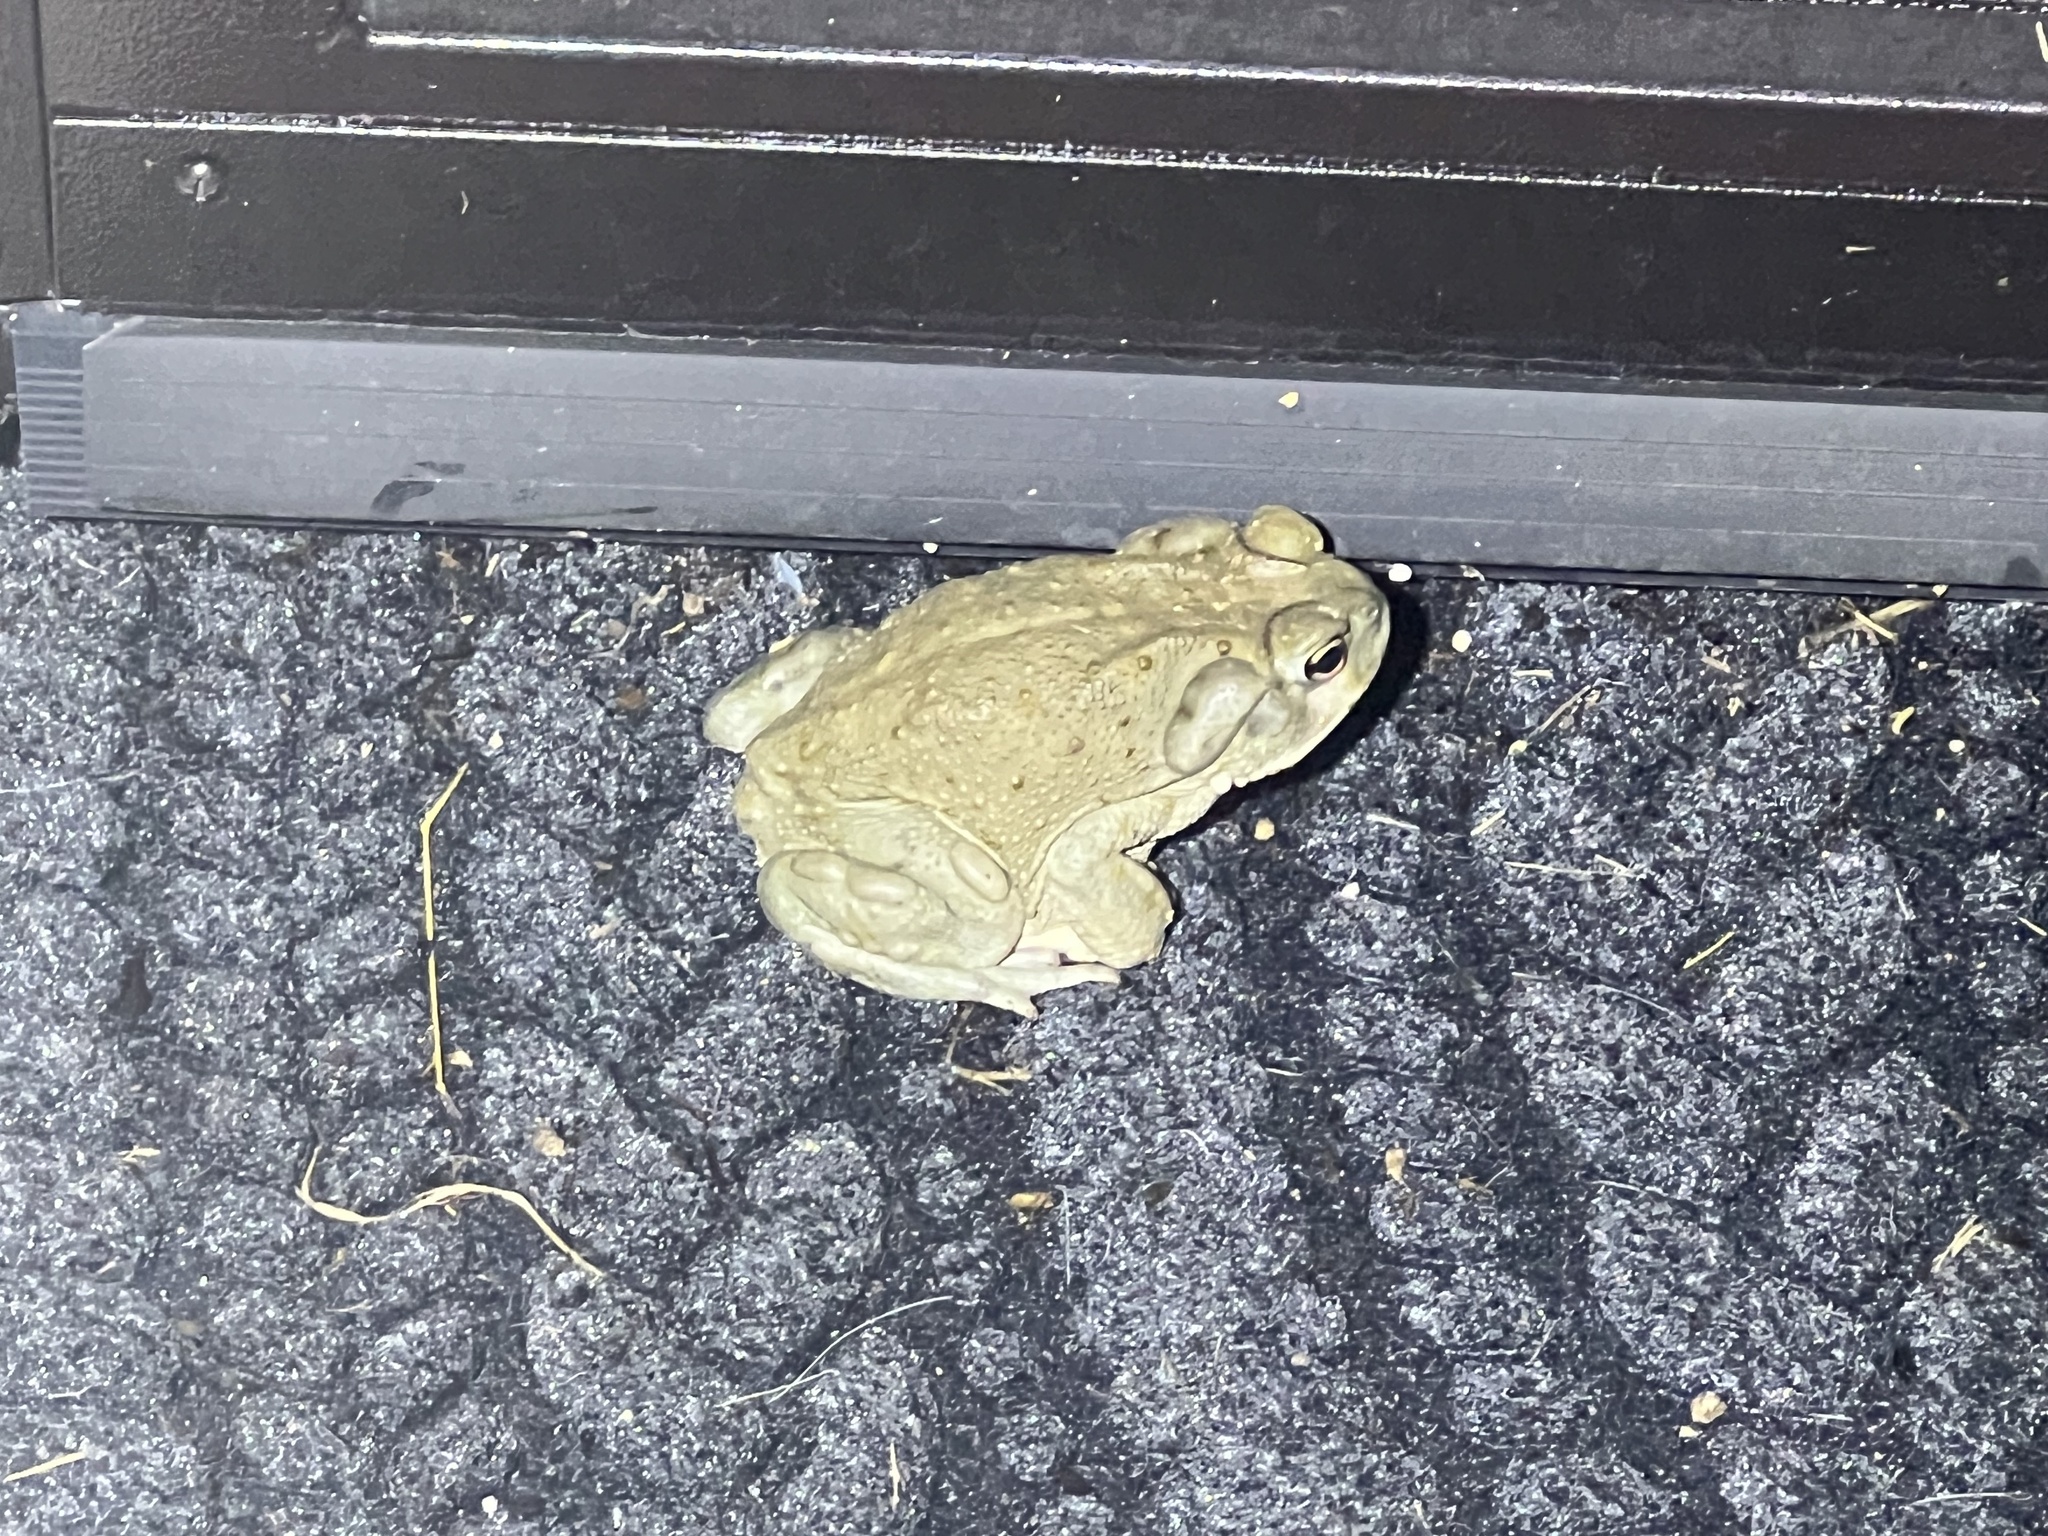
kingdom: Animalia
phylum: Chordata
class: Amphibia
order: Anura
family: Bufonidae
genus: Incilius
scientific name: Incilius alvarius
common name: Sonoran desert toad
